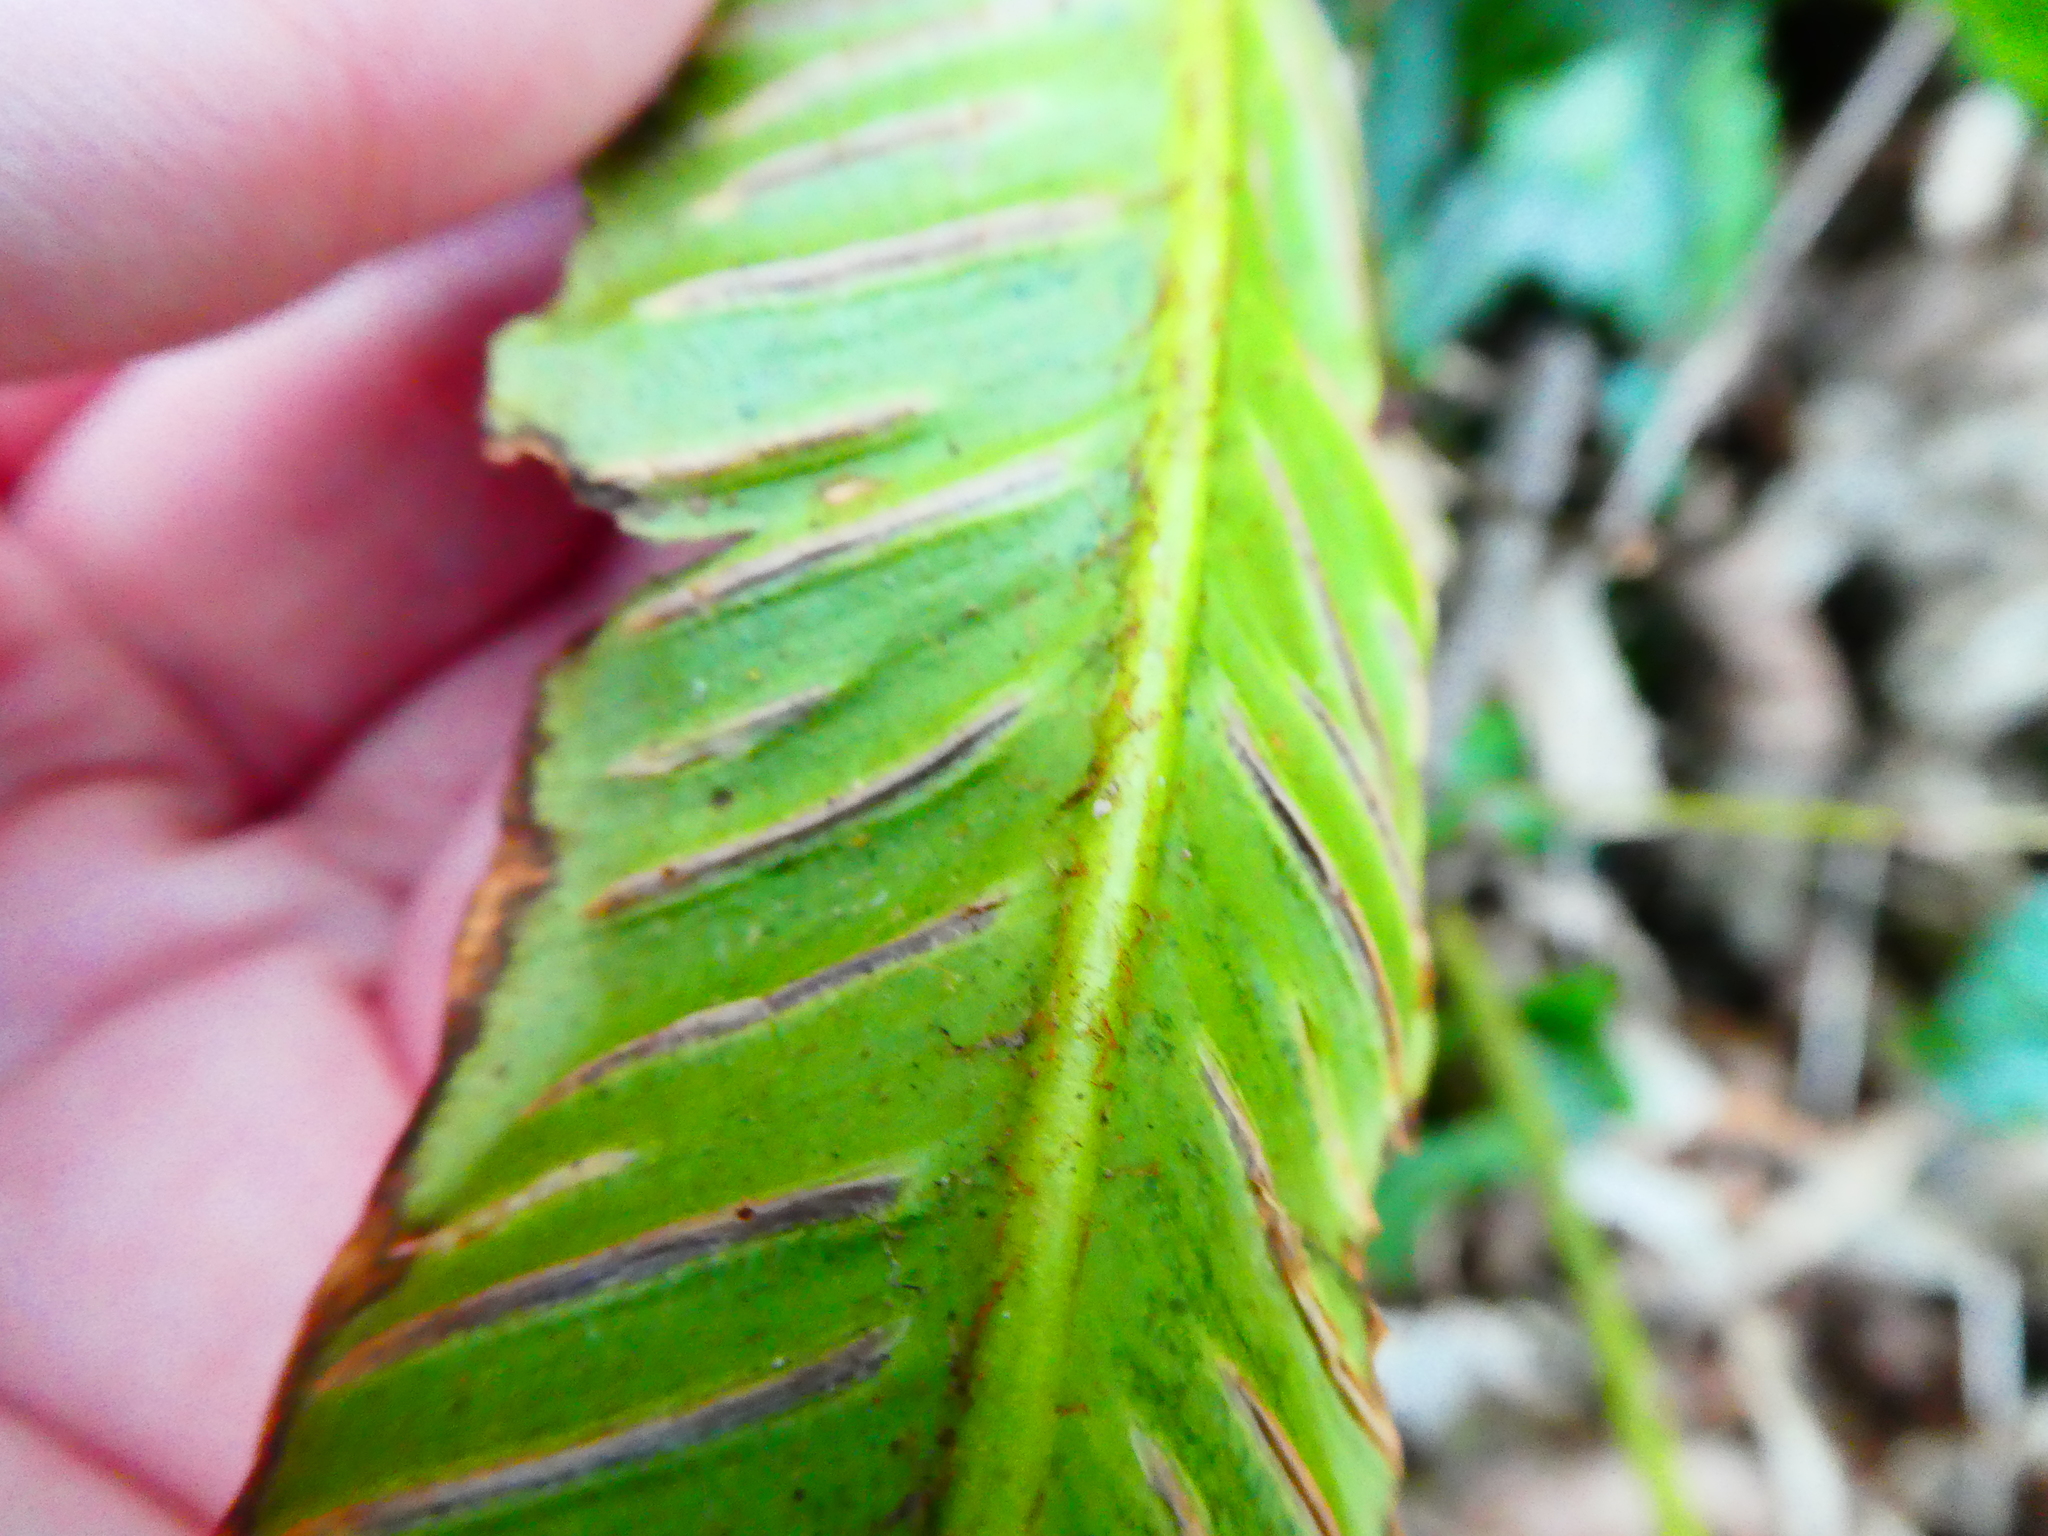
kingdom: Plantae
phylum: Tracheophyta
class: Polypodiopsida
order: Polypodiales
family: Aspleniaceae
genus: Asplenium
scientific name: Asplenium scolopendrium
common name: Hart's-tongue fern
